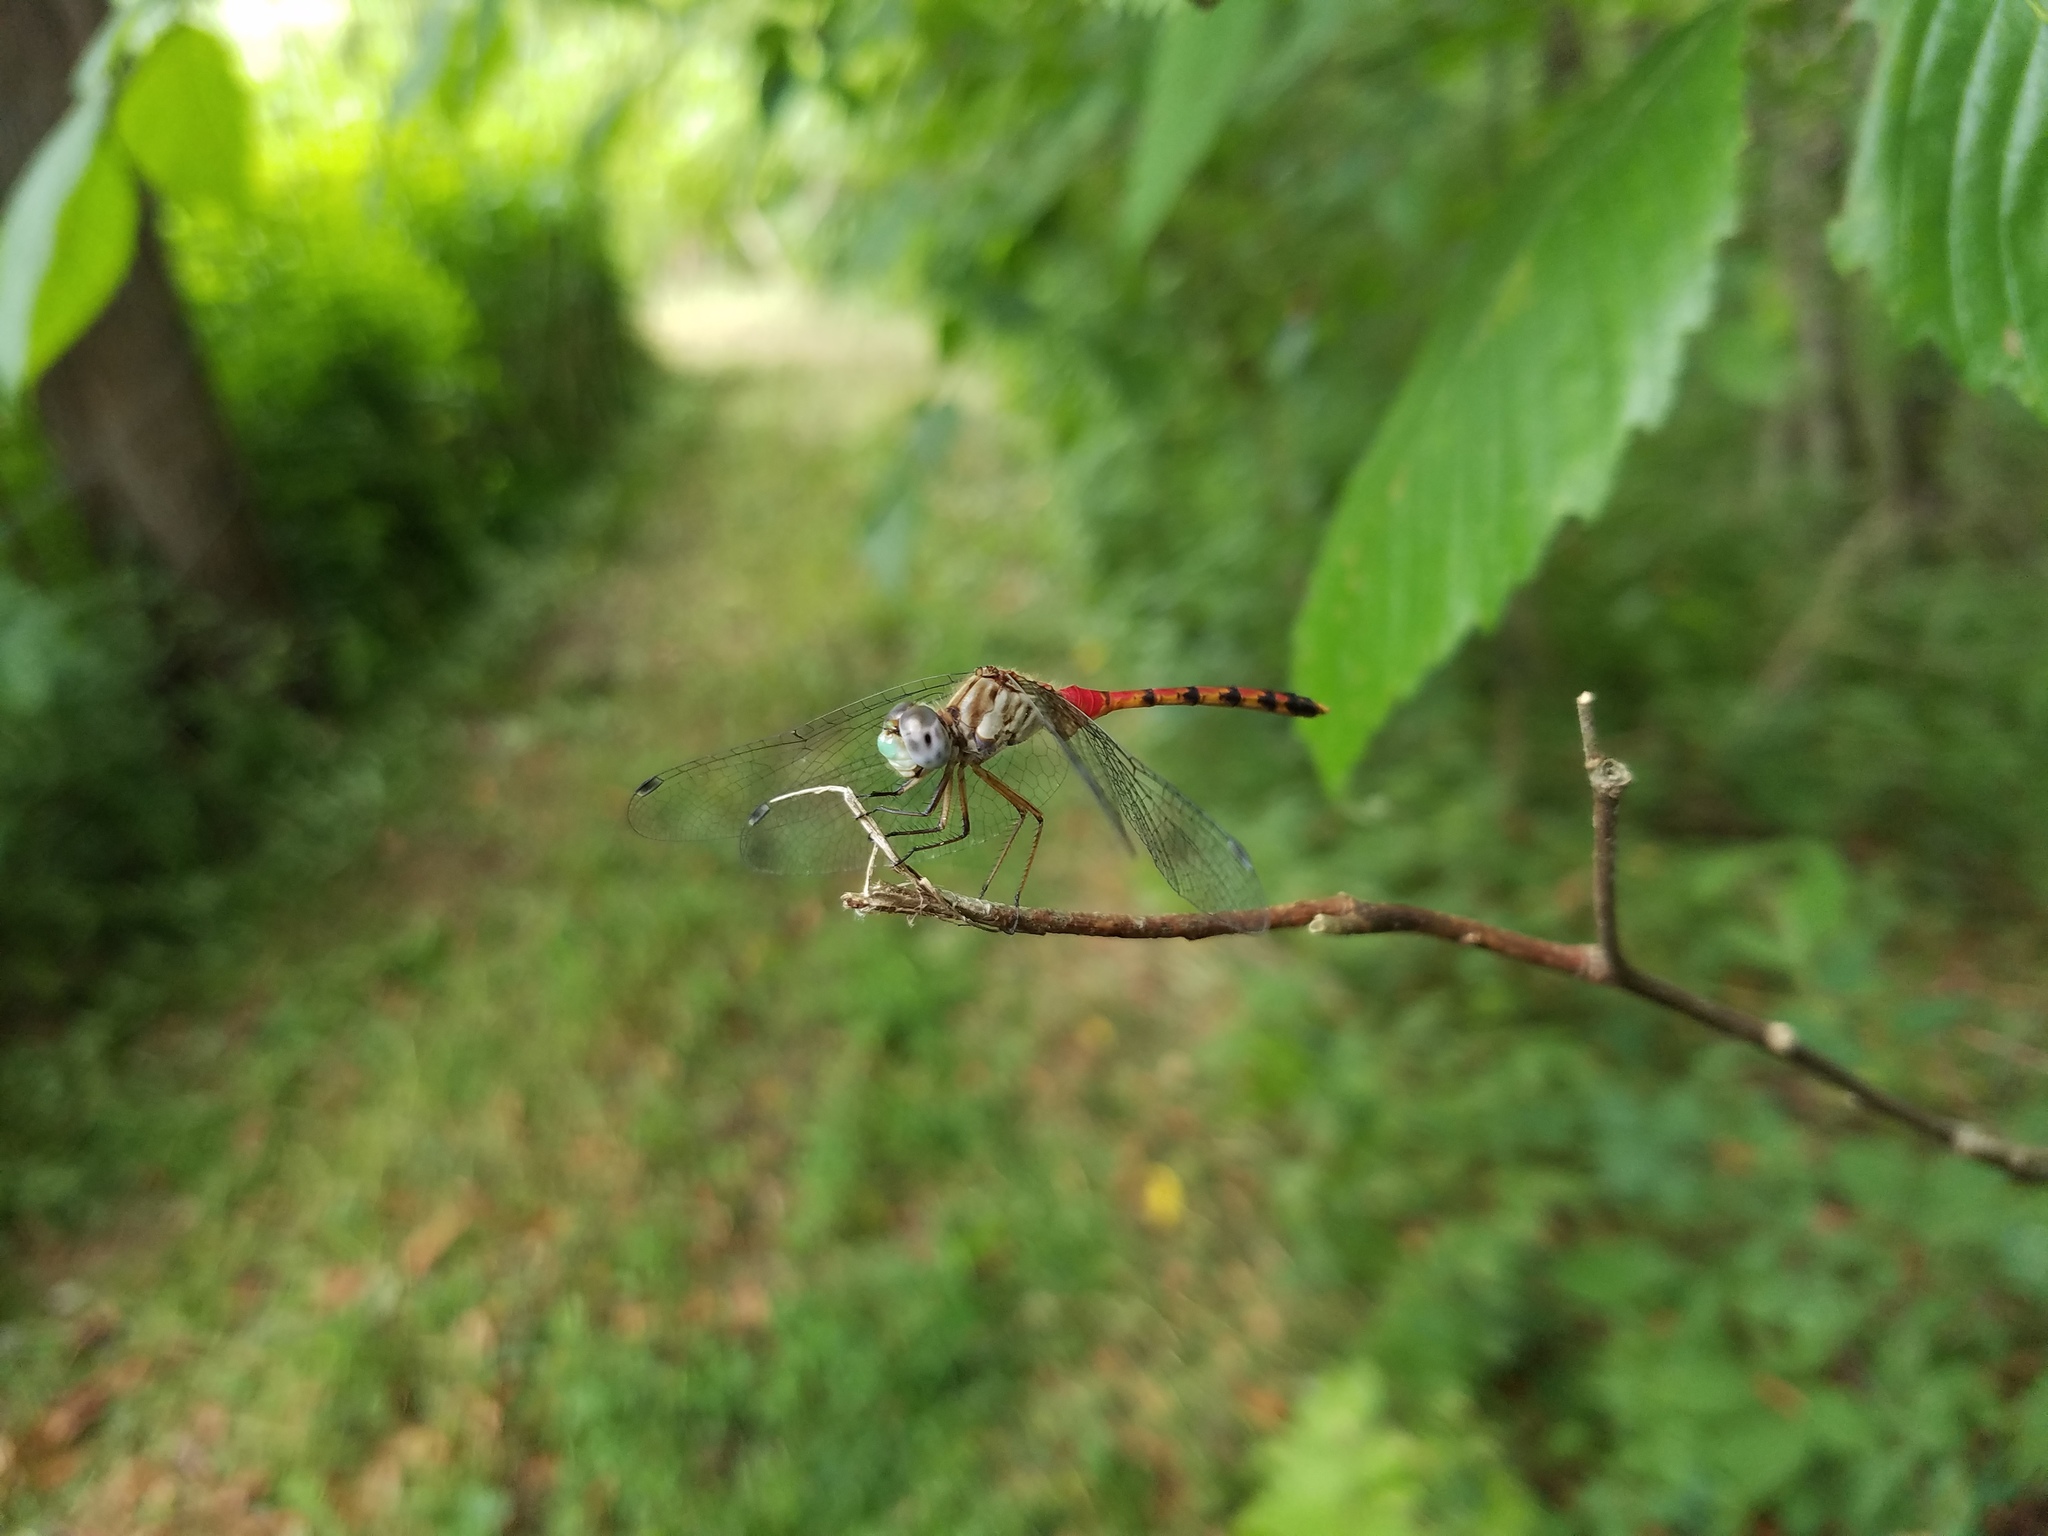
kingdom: Animalia
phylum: Arthropoda
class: Insecta
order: Odonata
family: Libellulidae
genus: Sympetrum
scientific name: Sympetrum ambiguum
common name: Blue-faced meadowhawk
